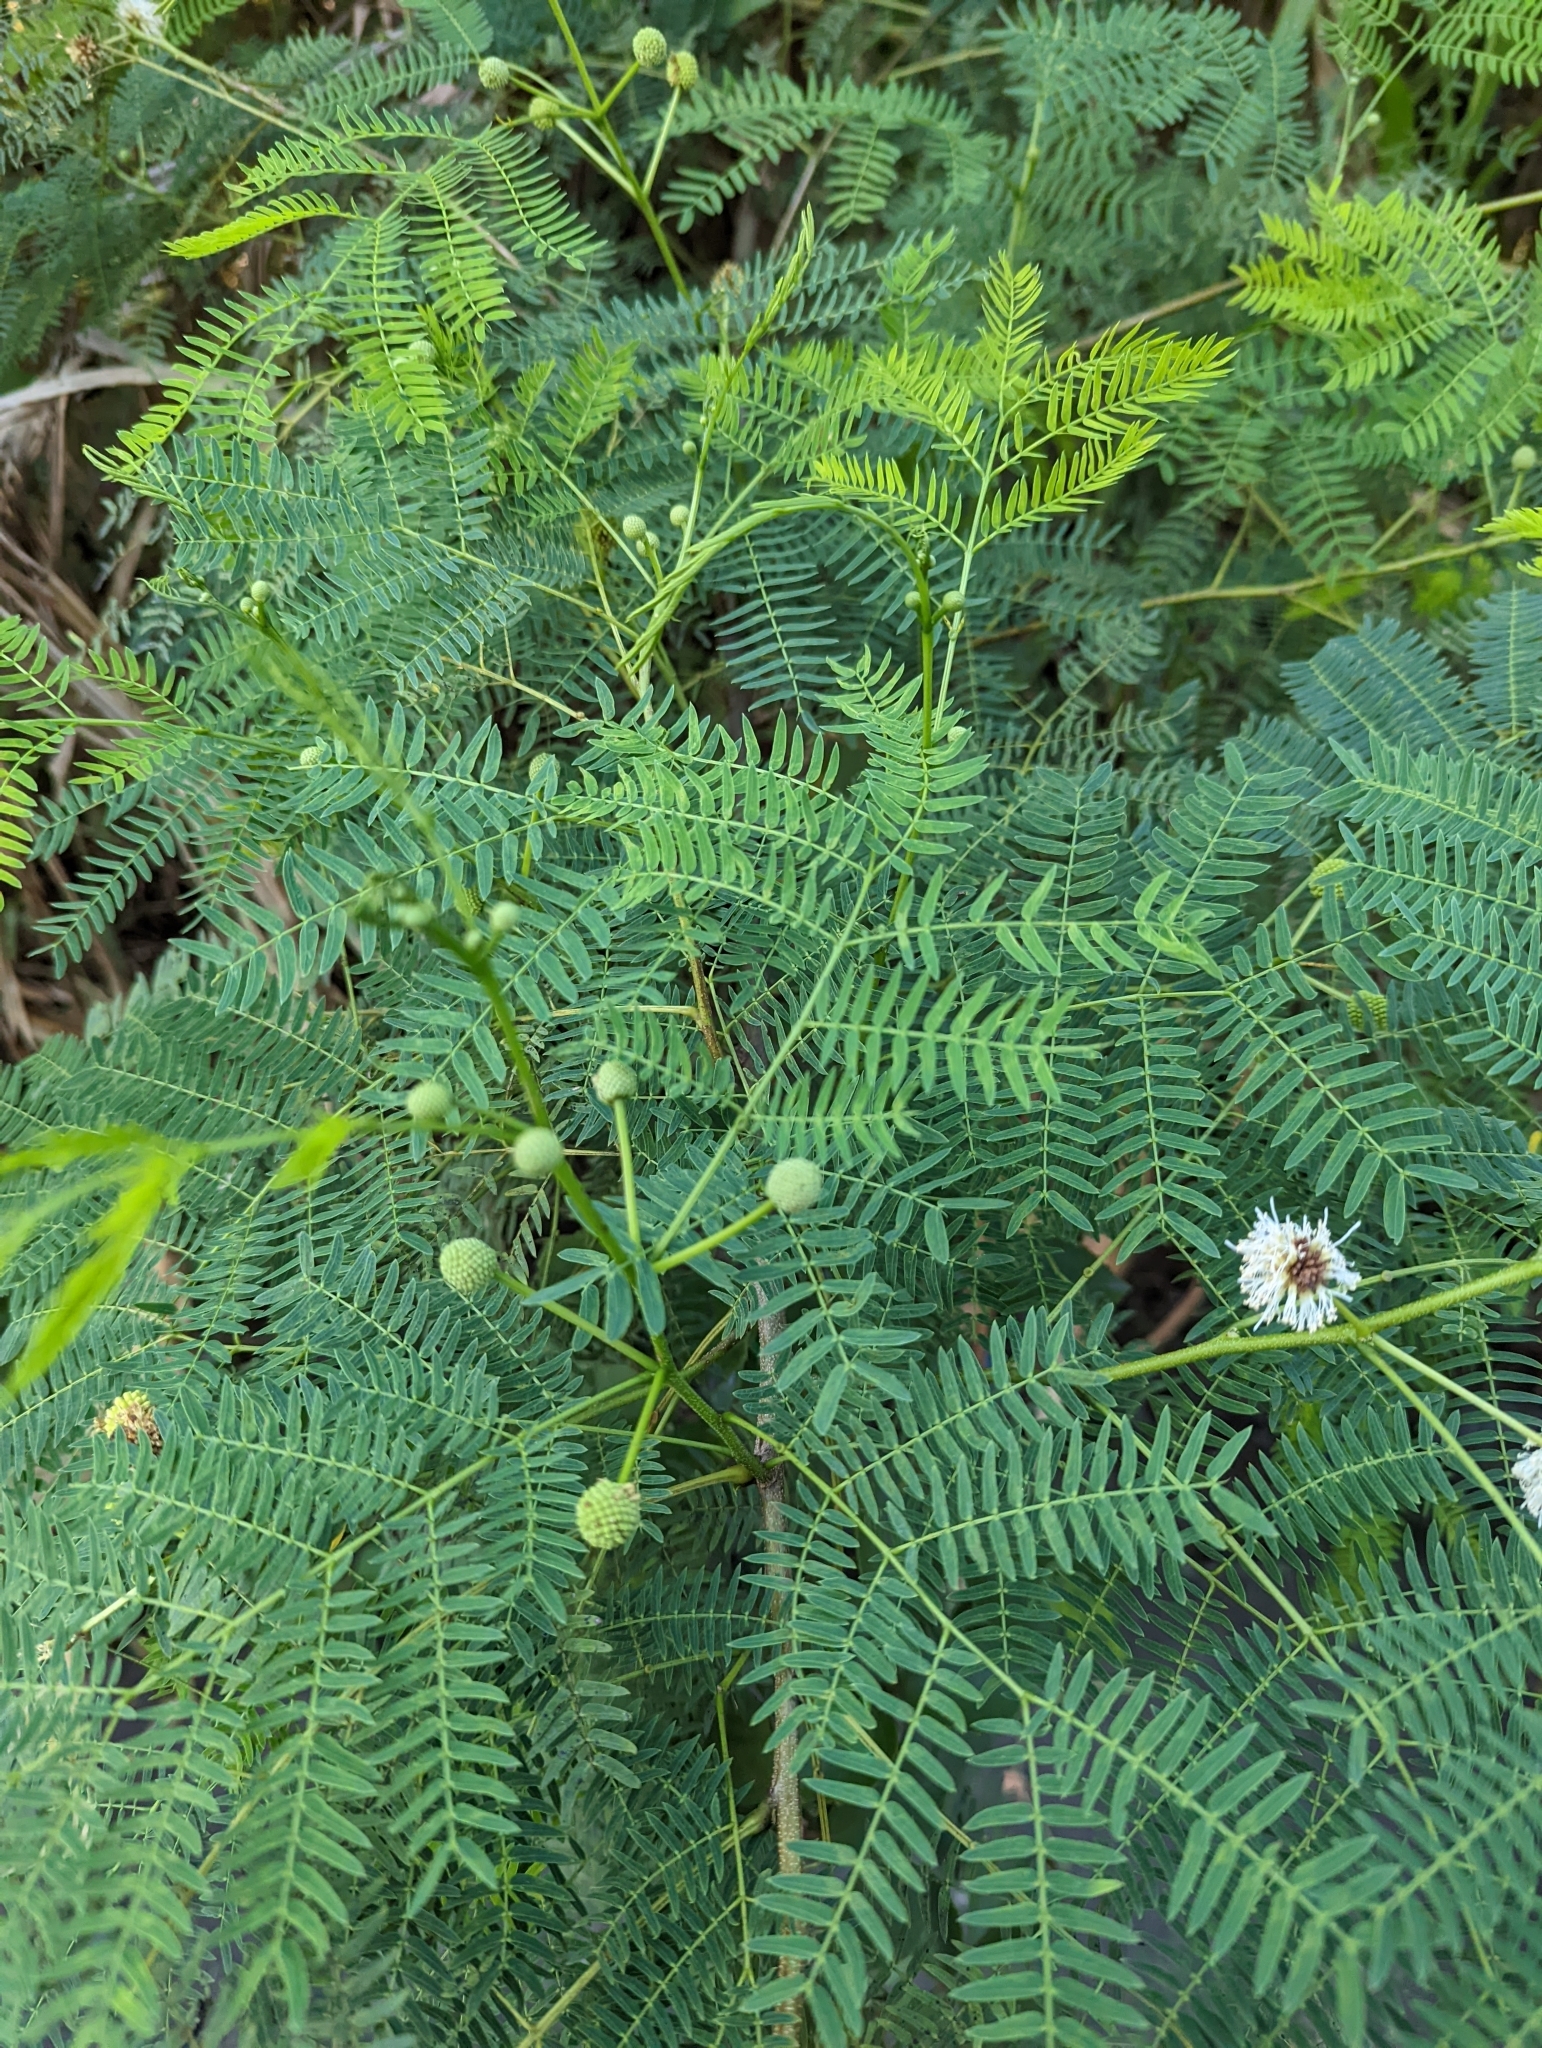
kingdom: Plantae
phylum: Tracheophyta
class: Magnoliopsida
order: Fabales
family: Fabaceae
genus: Leucaena
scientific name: Leucaena leucocephala
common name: White leadtree
